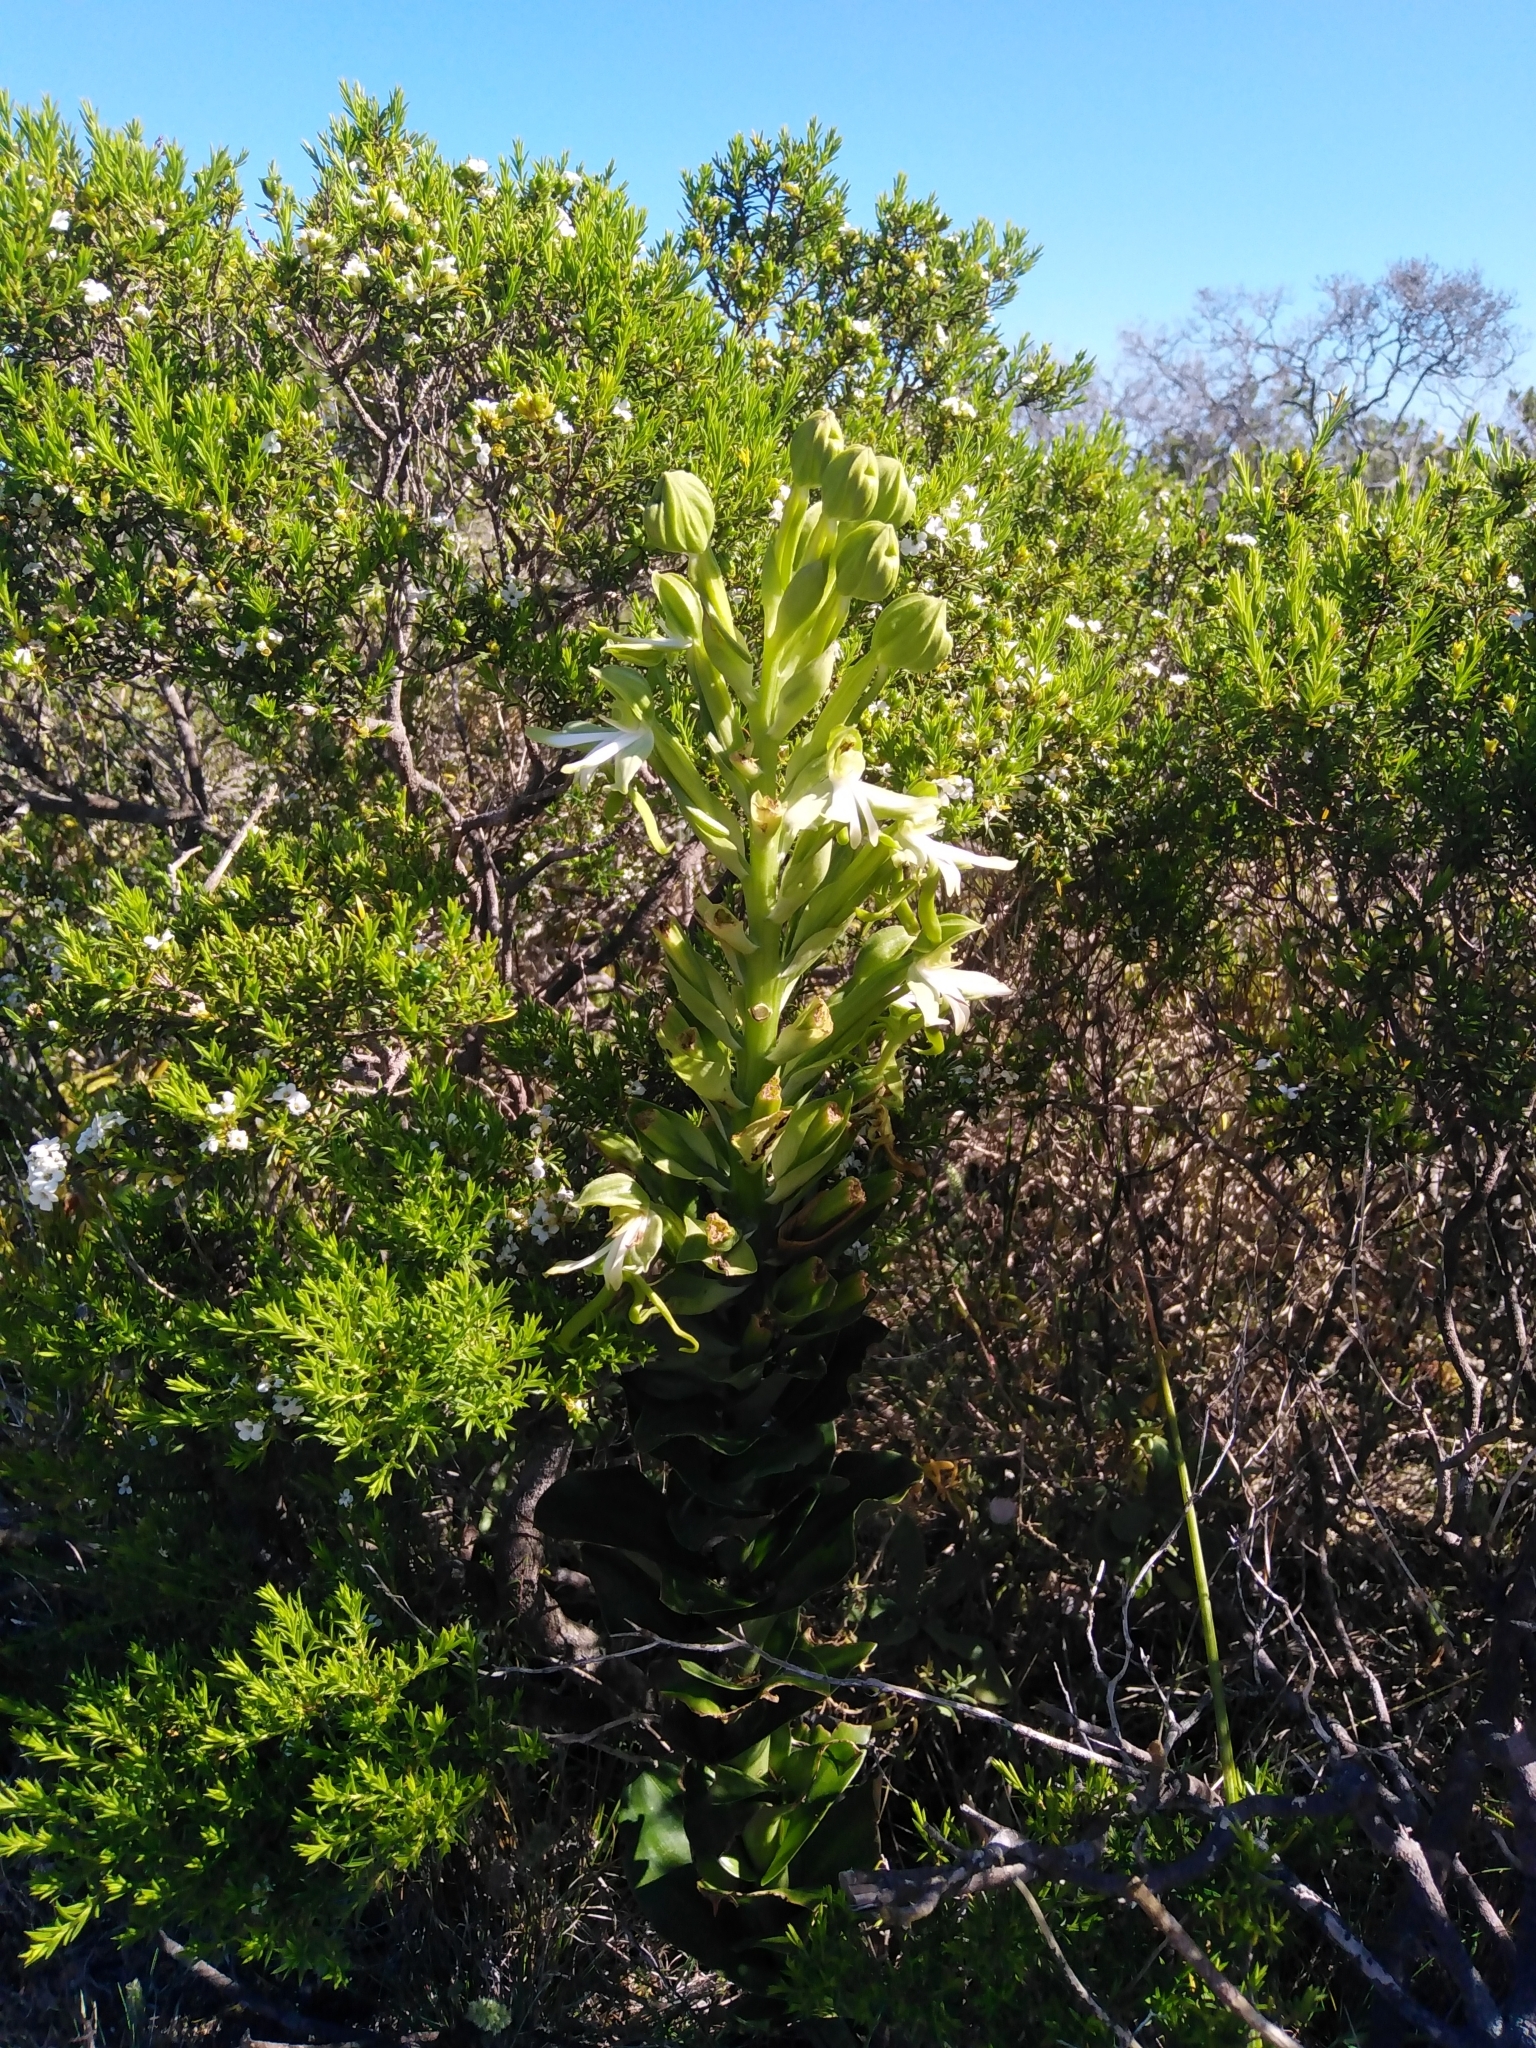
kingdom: Plantae
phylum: Tracheophyta
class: Liliopsida
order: Asparagales
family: Orchidaceae
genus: Bonatea
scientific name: Bonatea speciosa
